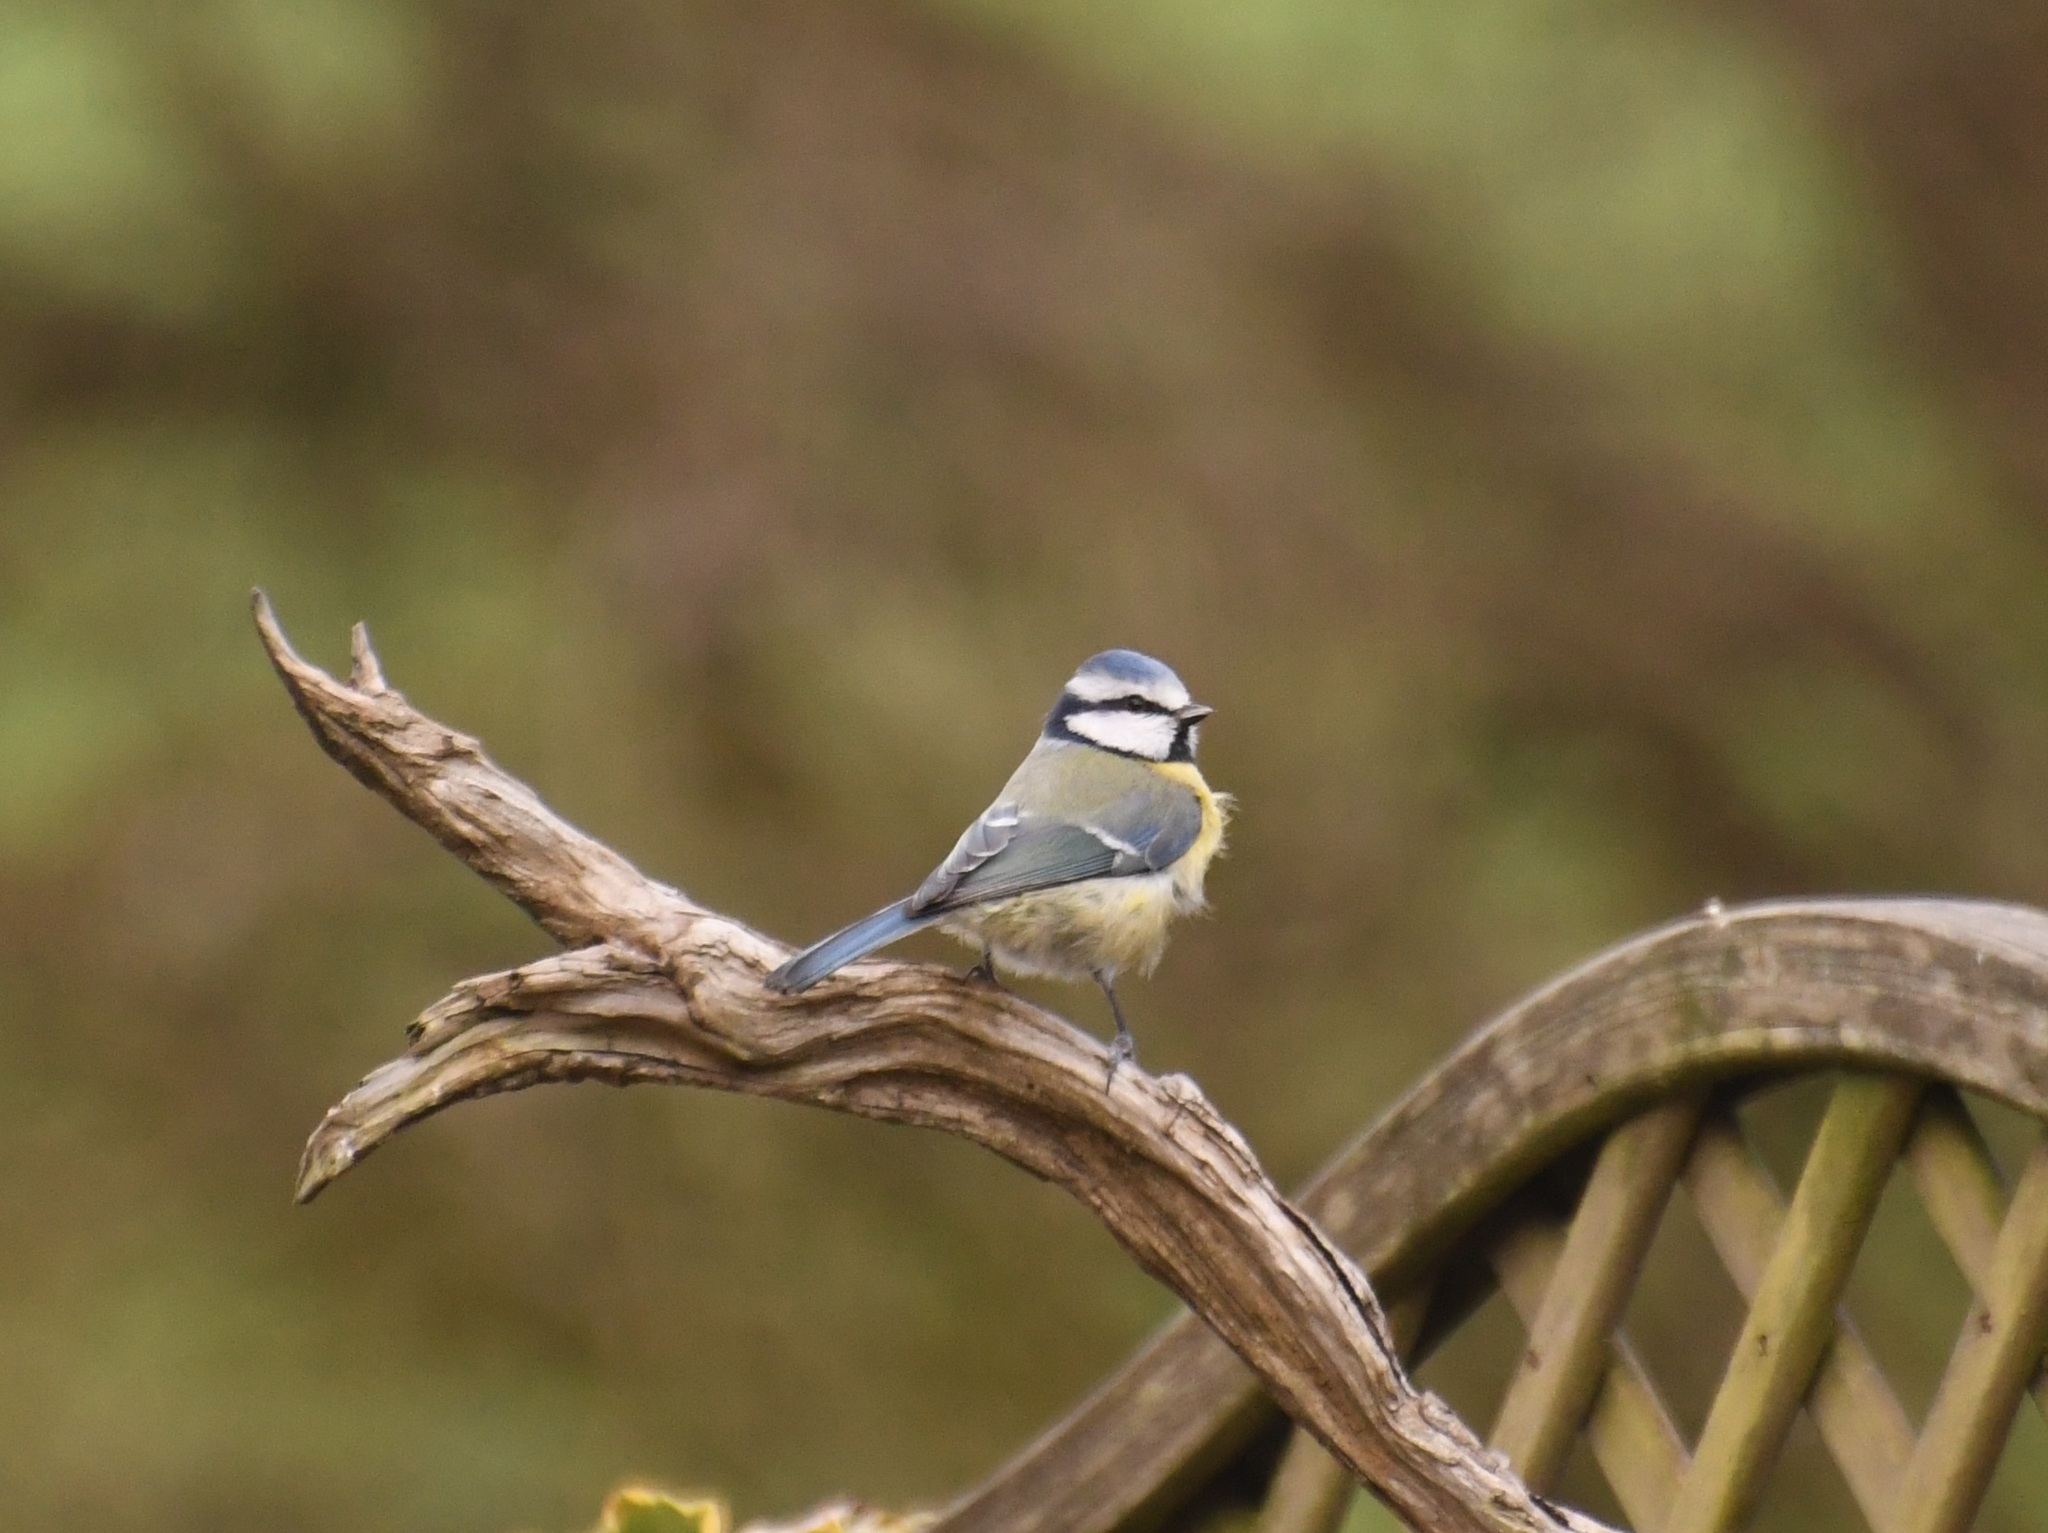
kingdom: Animalia
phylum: Chordata
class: Aves
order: Passeriformes
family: Paridae
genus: Cyanistes
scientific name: Cyanistes caeruleus
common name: Eurasian blue tit
